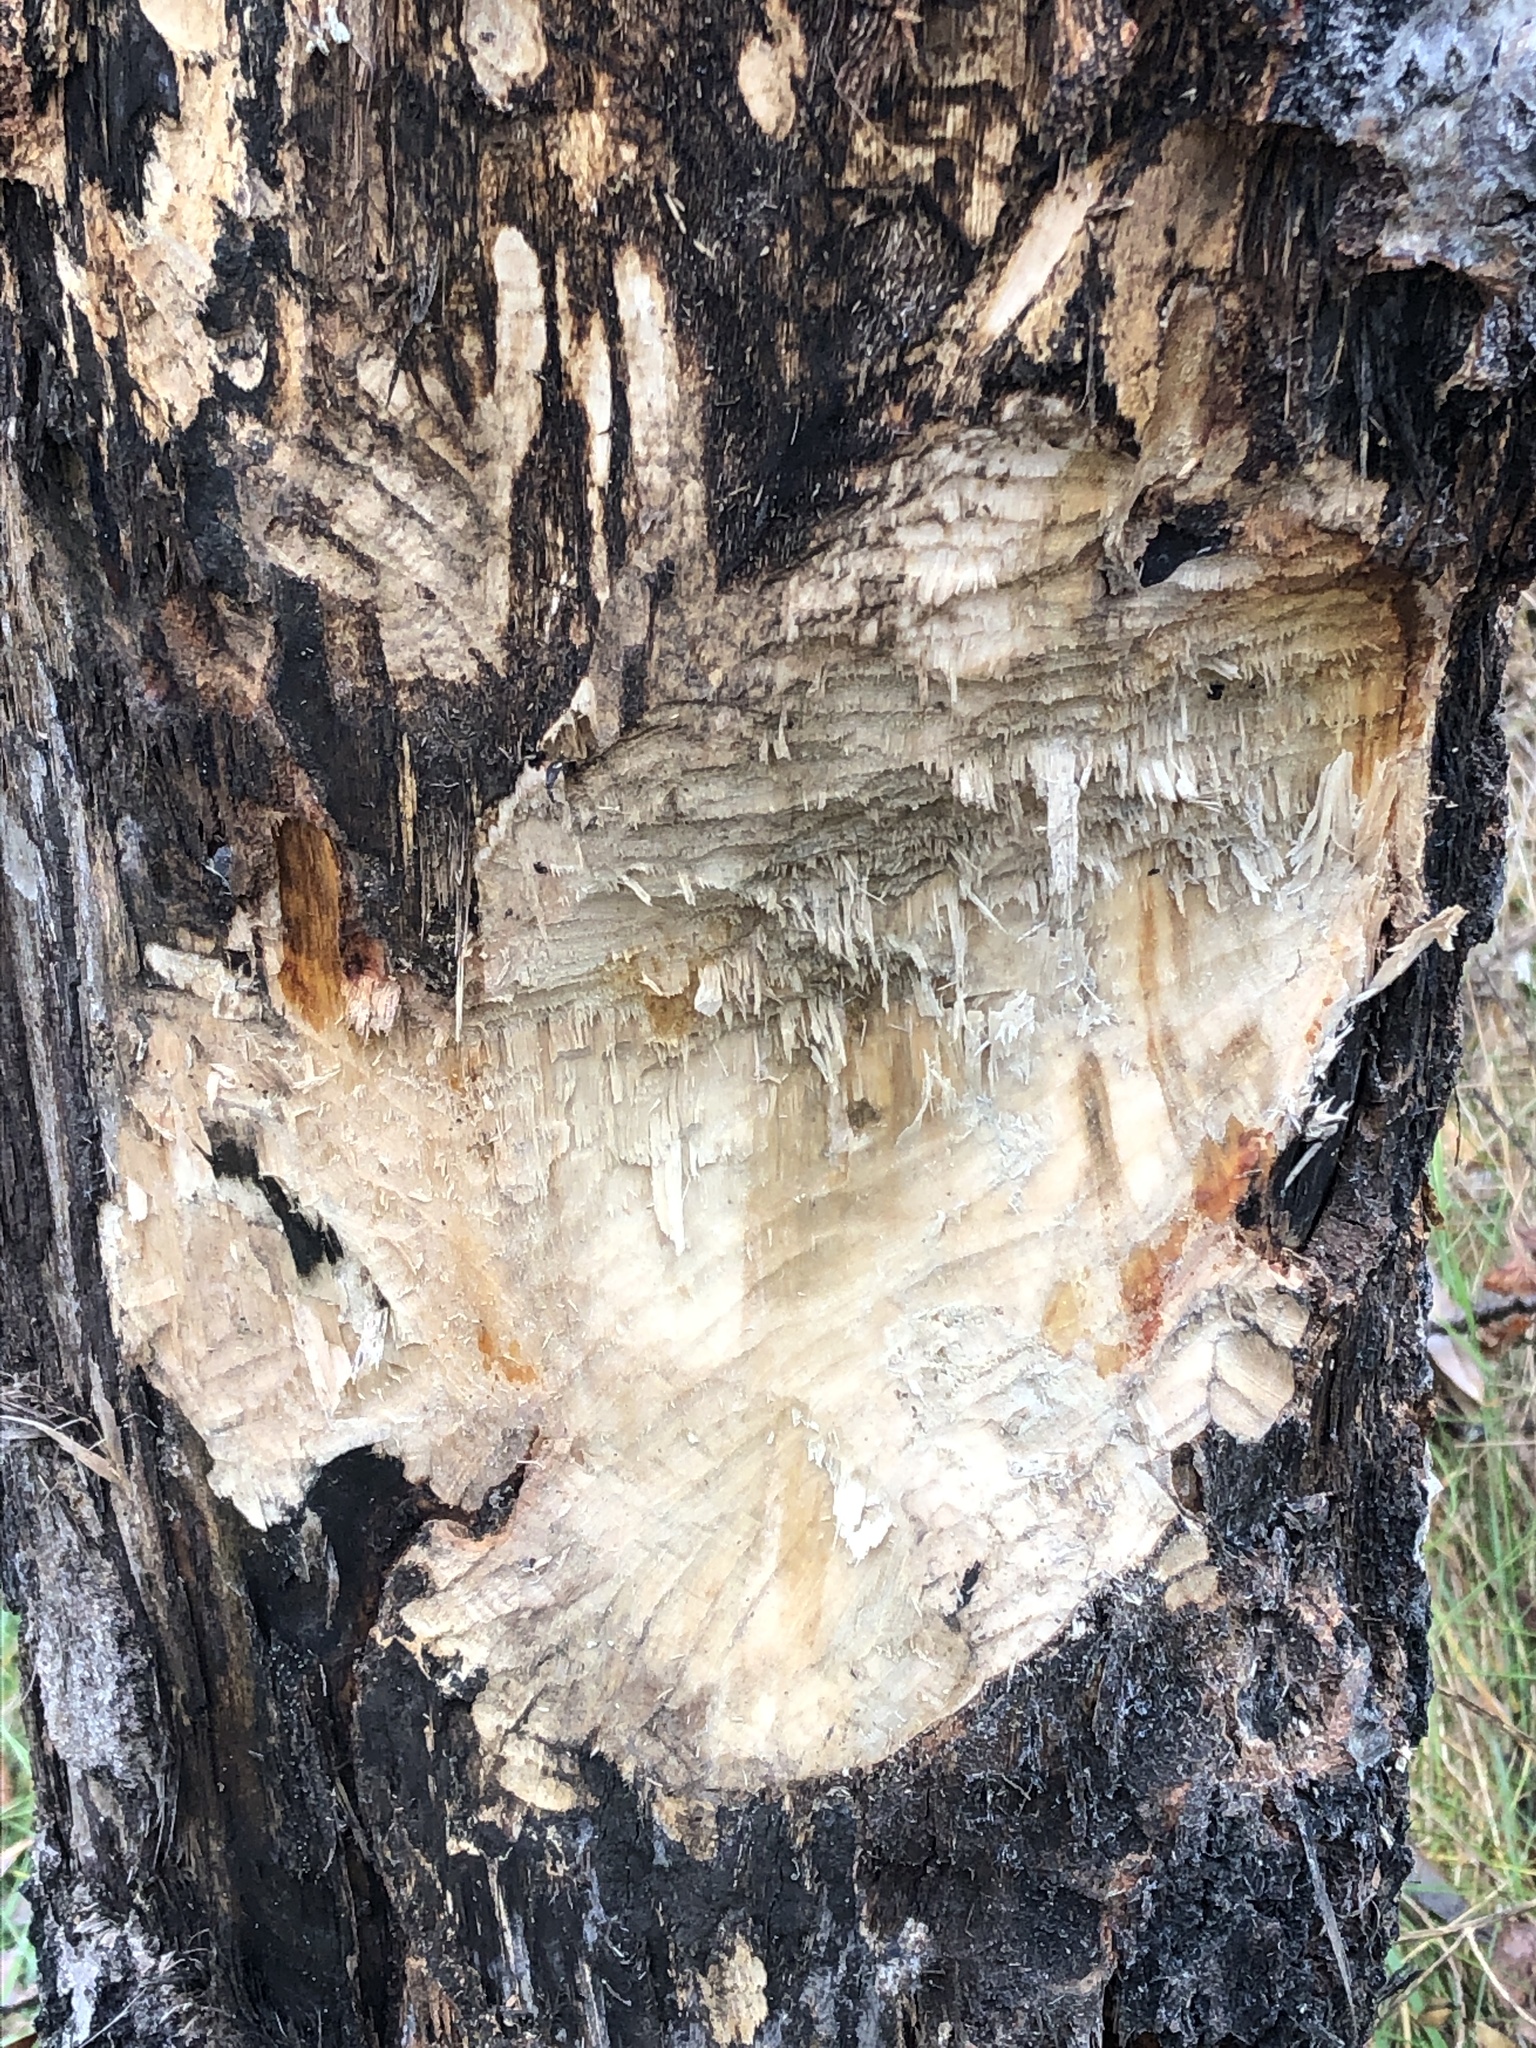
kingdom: Animalia
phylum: Chordata
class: Mammalia
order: Rodentia
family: Castoridae
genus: Castor
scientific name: Castor canadensis
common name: American beaver
